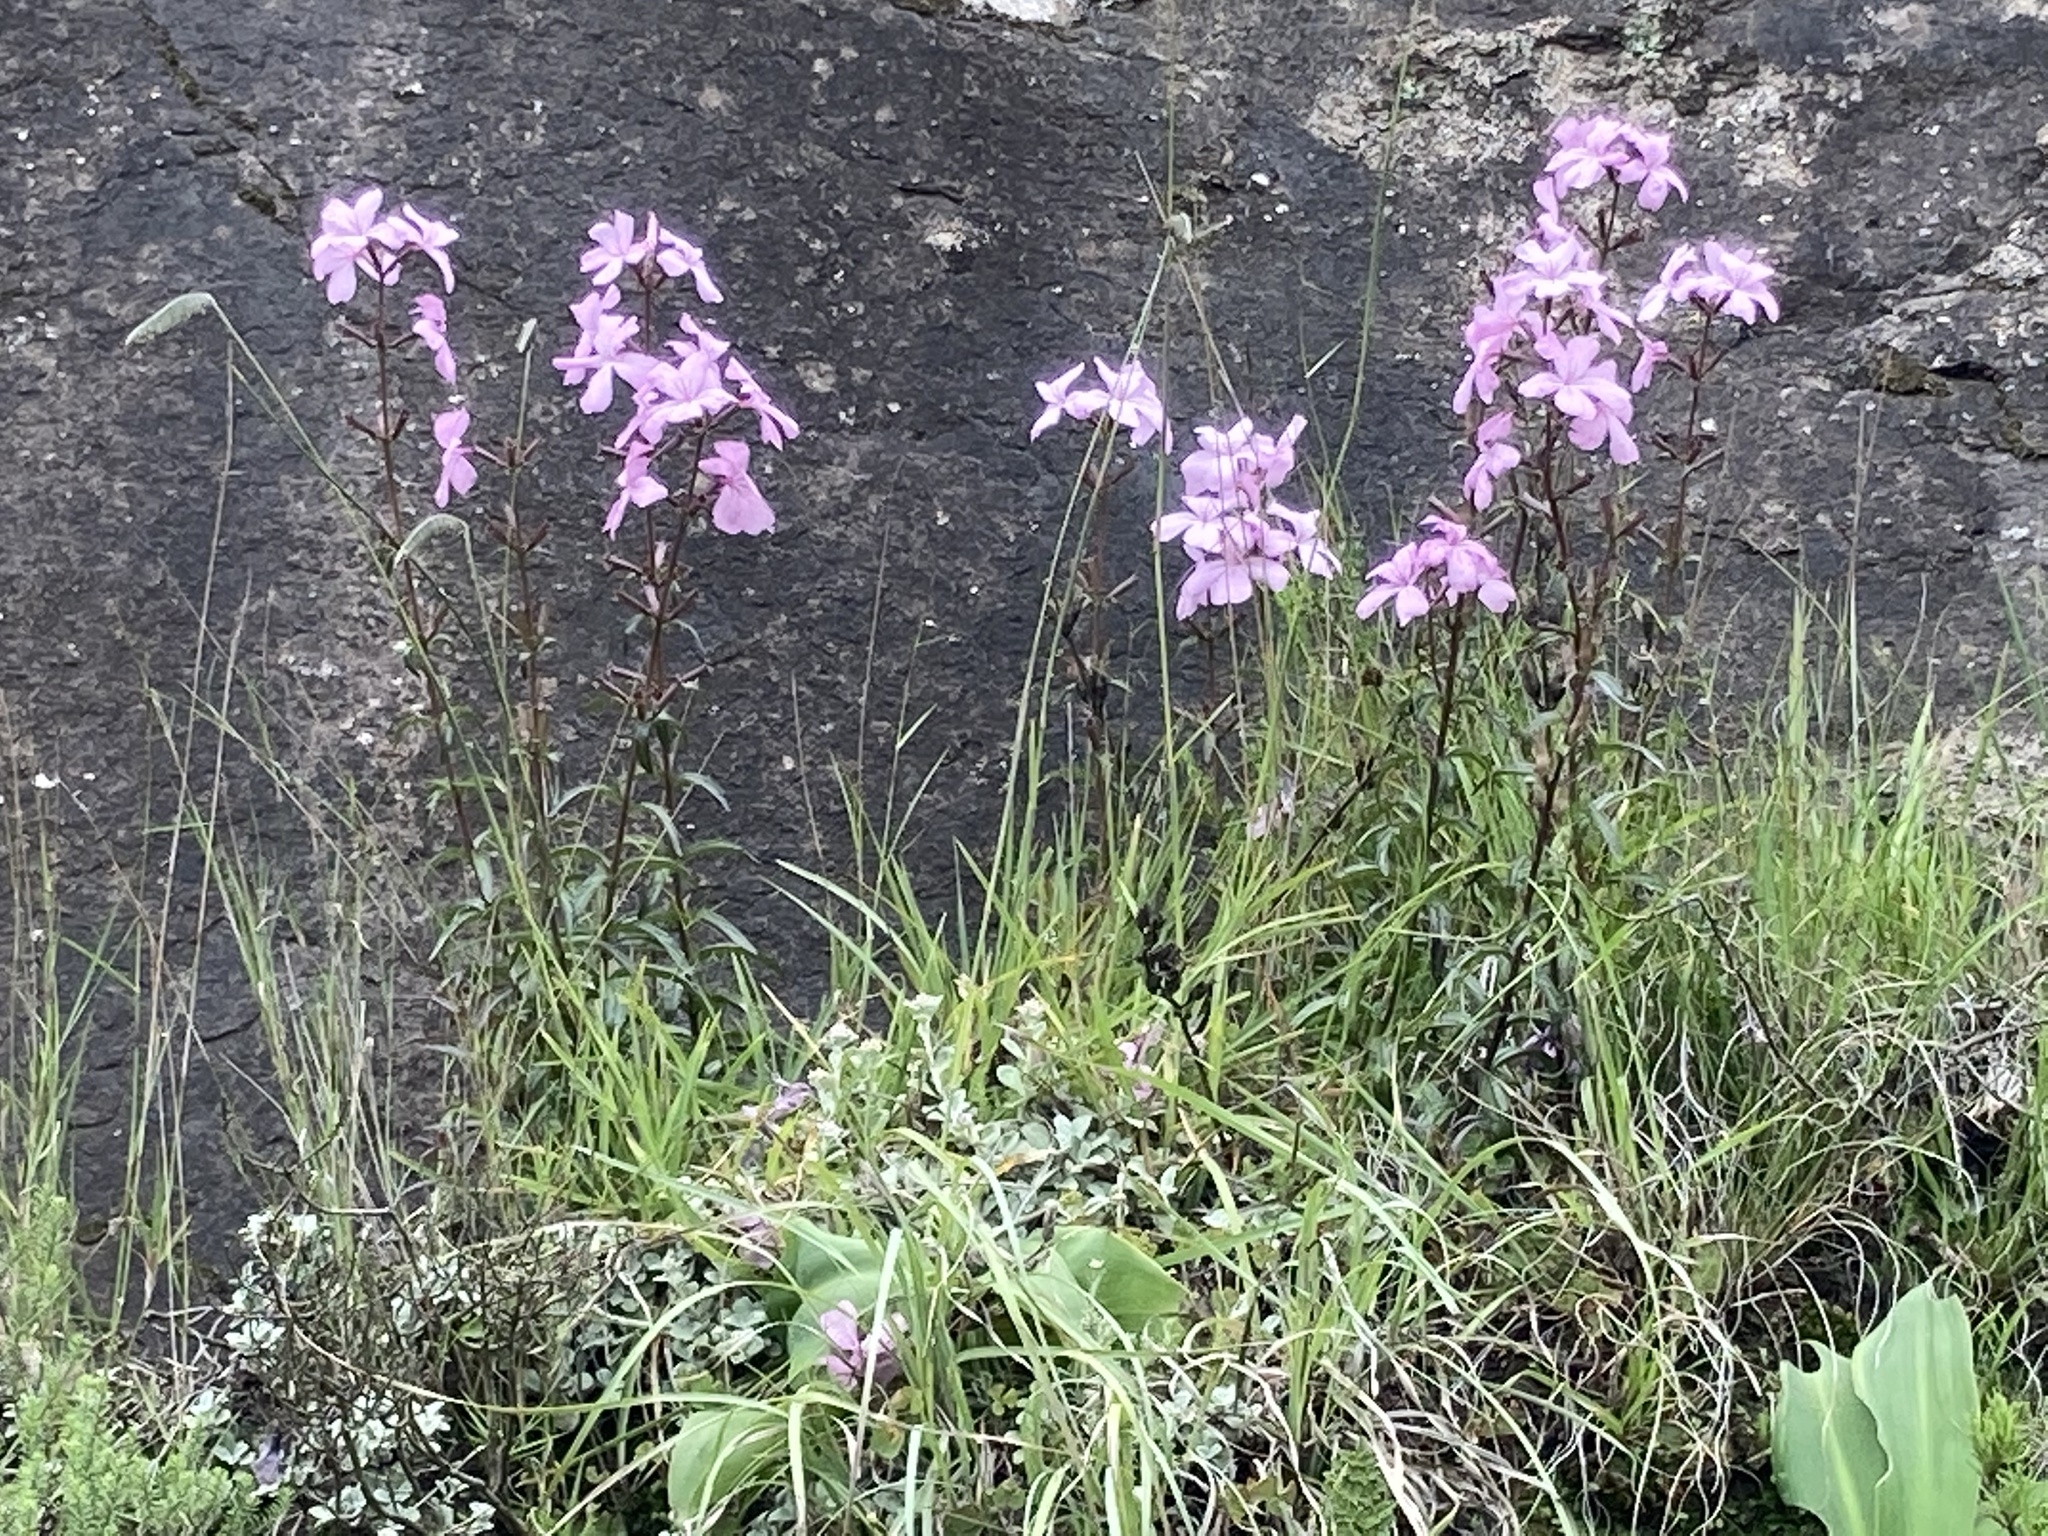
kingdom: Plantae
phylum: Tracheophyta
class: Magnoliopsida
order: Lamiales
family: Orobanchaceae
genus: Cycnium
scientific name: Cycnium racemosum
